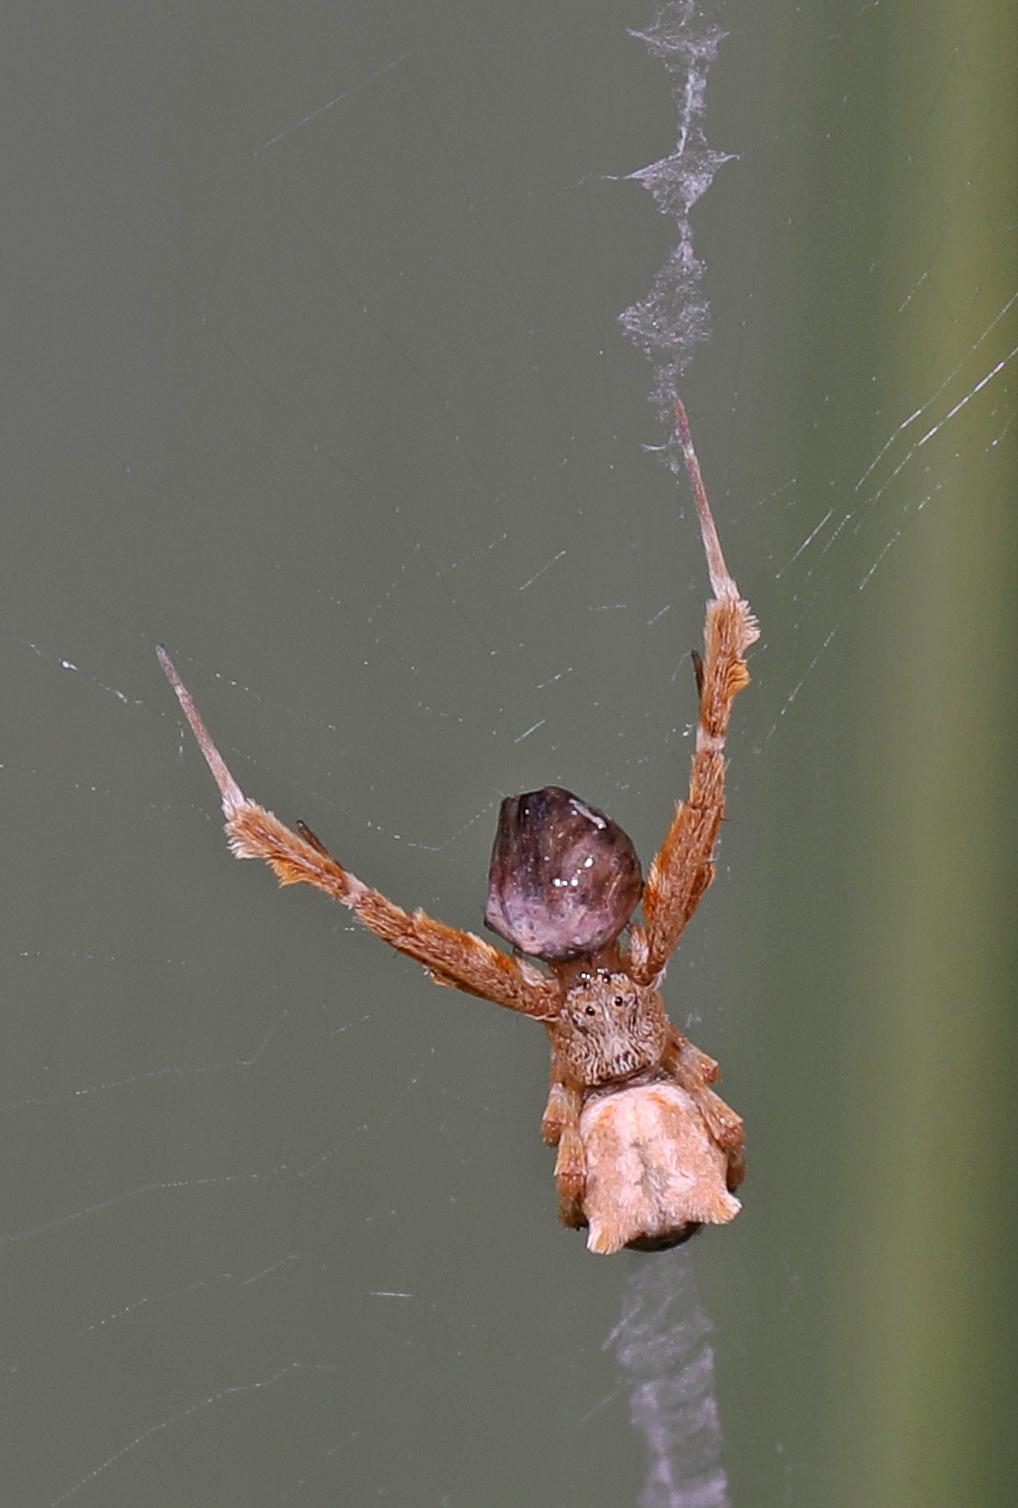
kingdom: Animalia
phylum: Arthropoda
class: Arachnida
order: Araneae
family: Uloboridae
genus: Uloborus
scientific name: Uloborus glomosus
